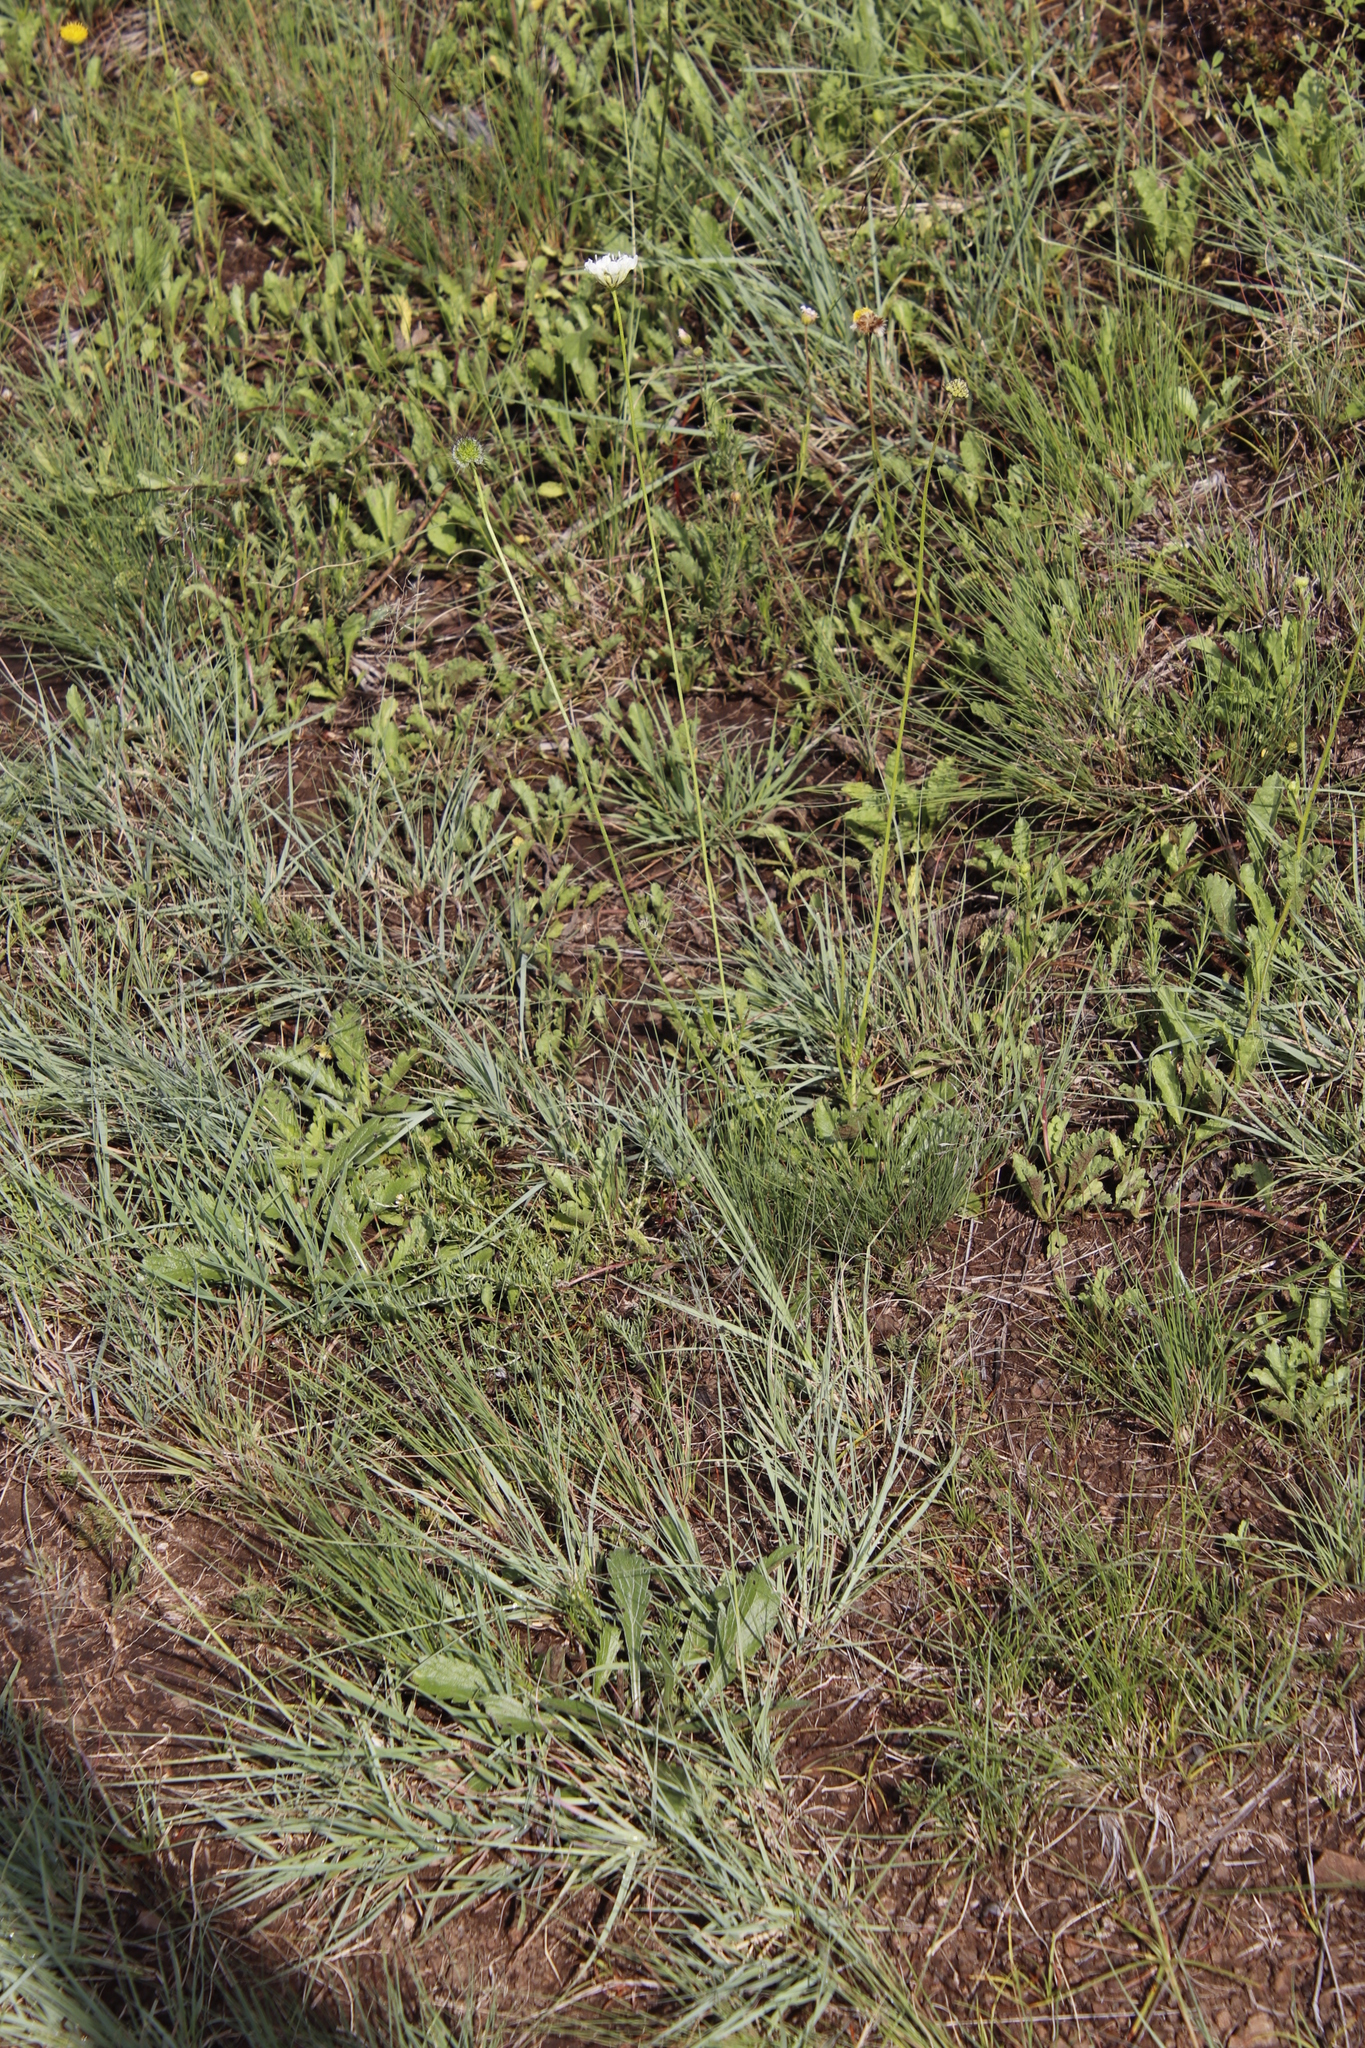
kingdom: Plantae
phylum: Tracheophyta
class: Magnoliopsida
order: Dipsacales
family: Caprifoliaceae
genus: Scabiosa
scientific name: Scabiosa columbaria
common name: Small scabious
